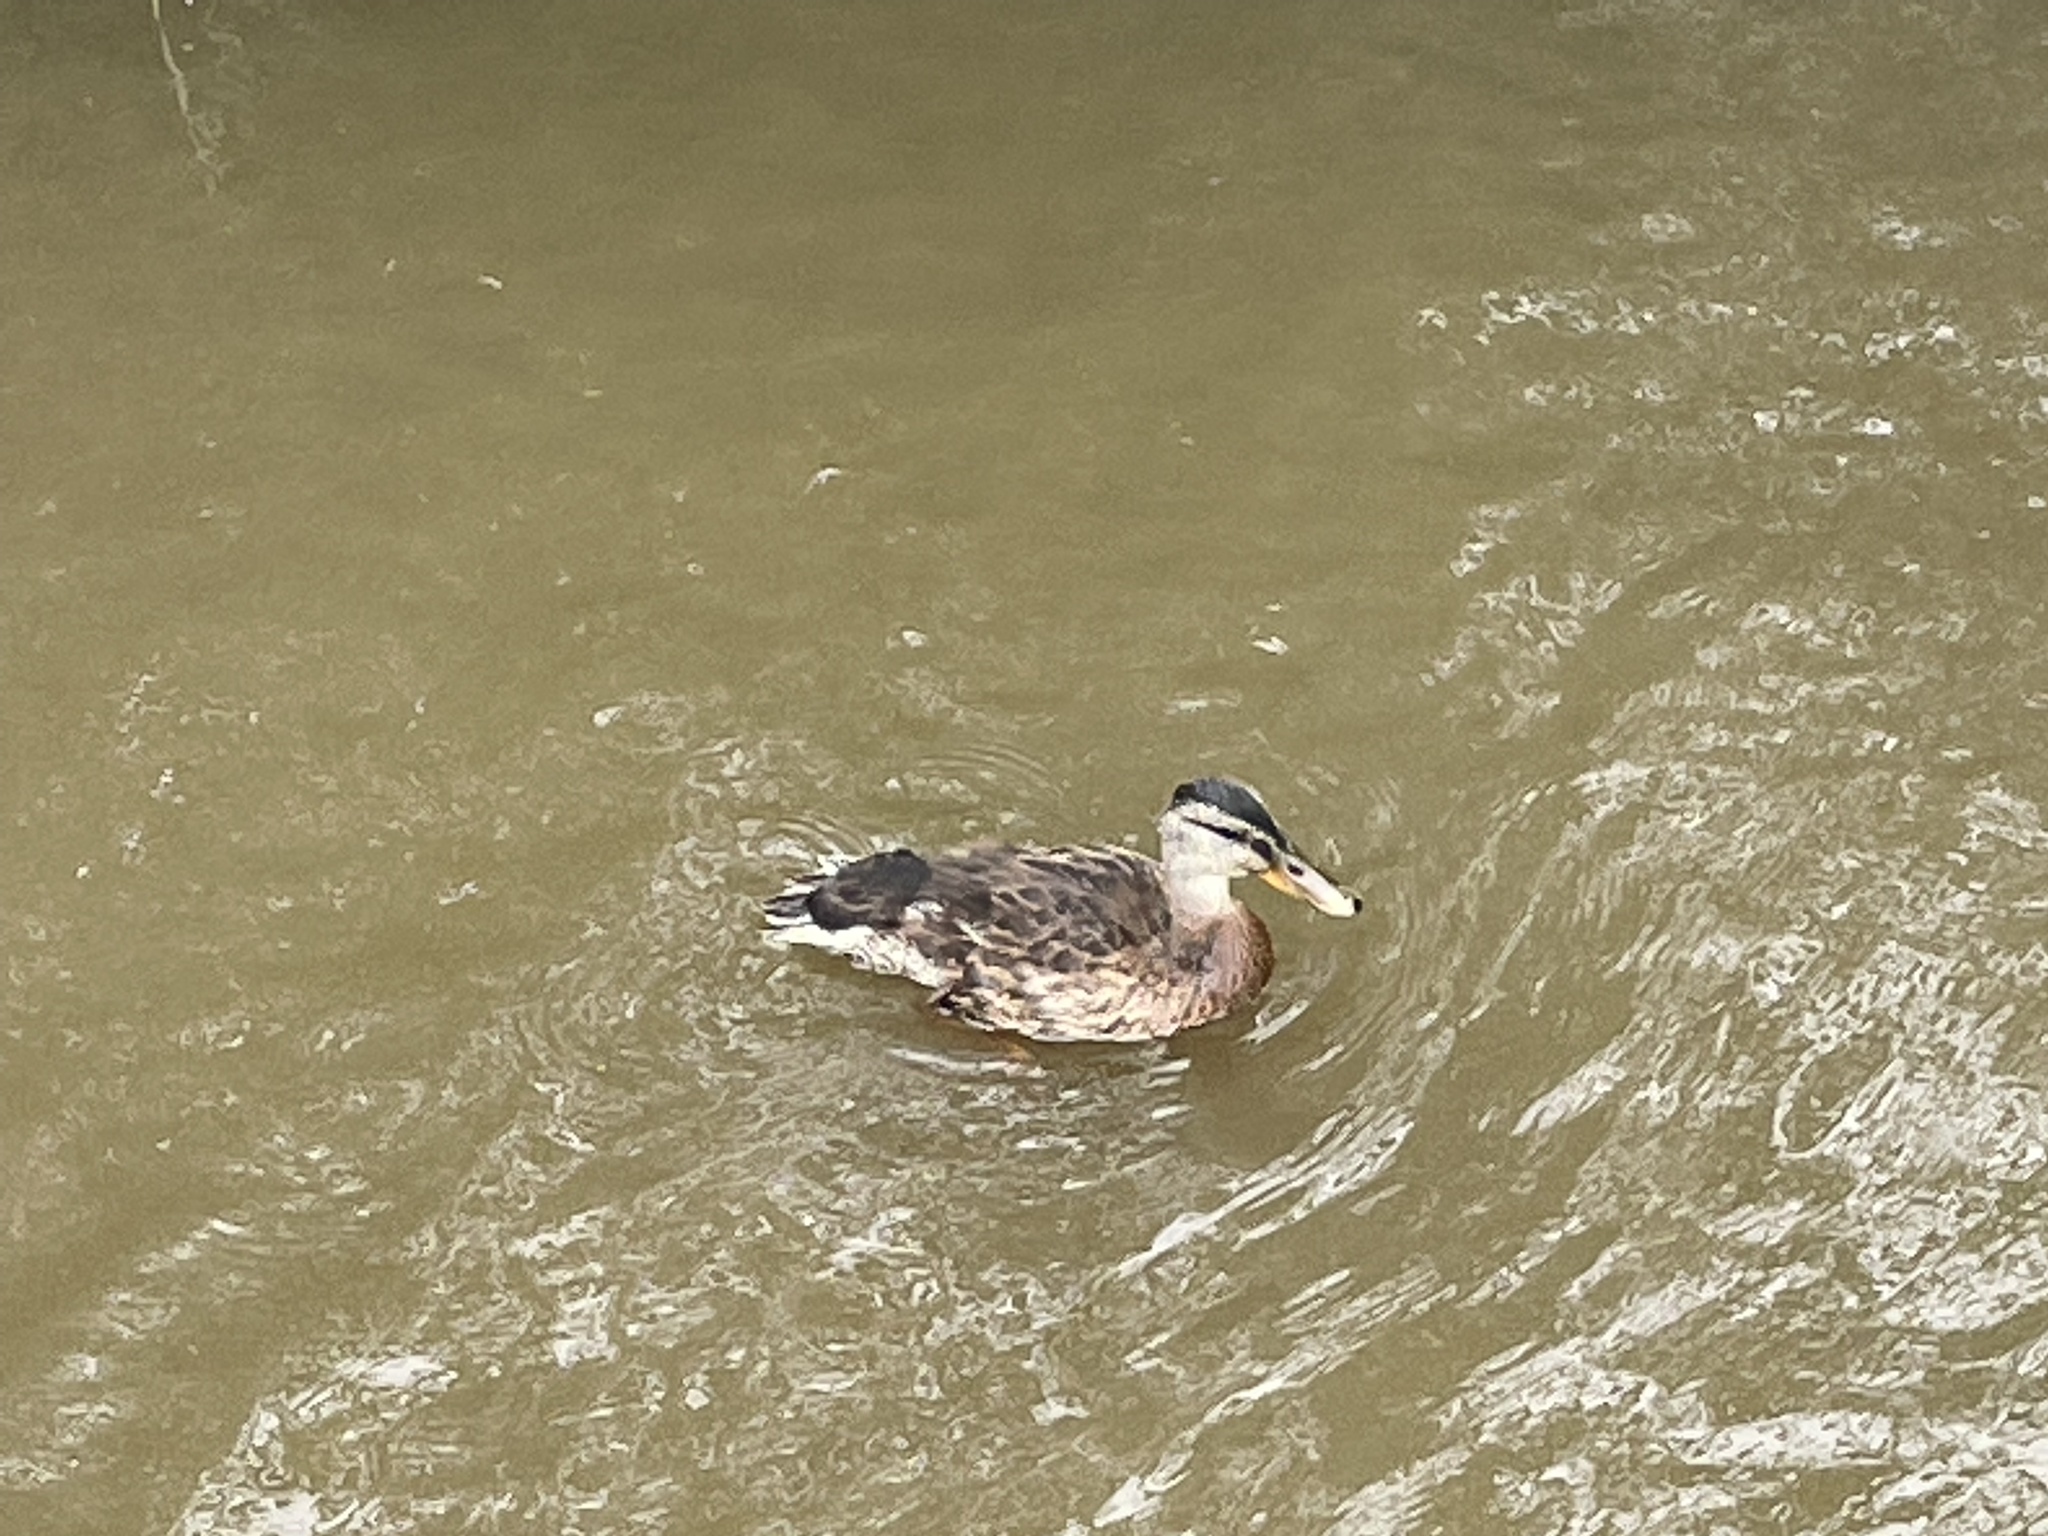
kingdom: Animalia
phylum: Chordata
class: Aves
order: Anseriformes
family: Anatidae
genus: Anas
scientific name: Anas platyrhynchos
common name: Mallard
